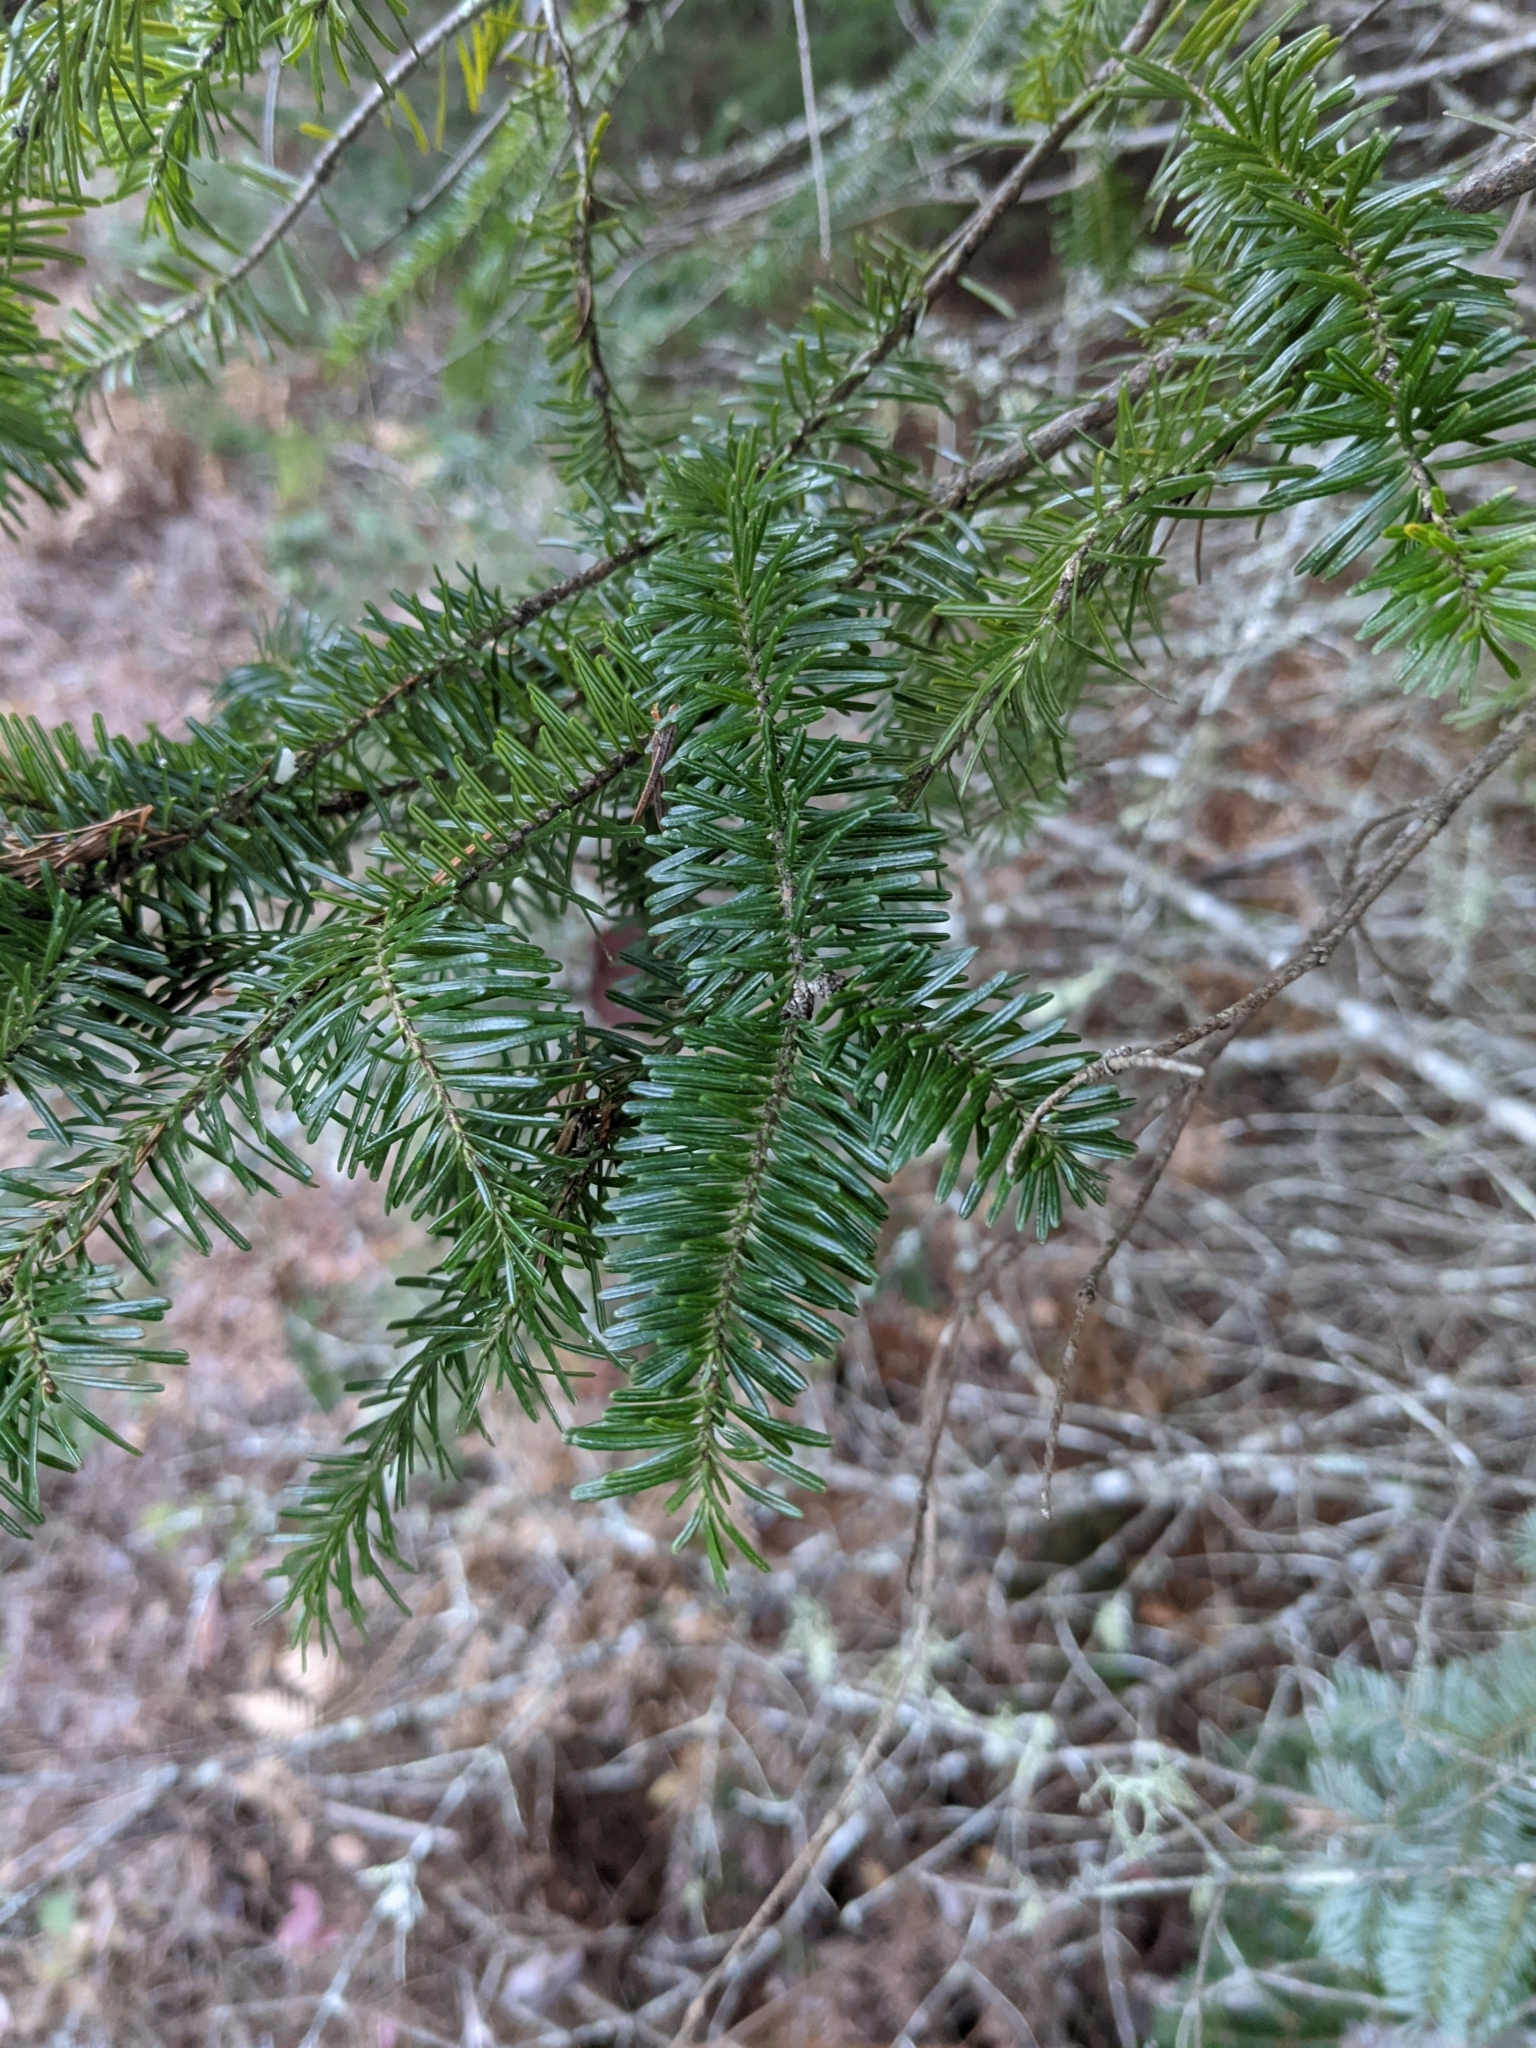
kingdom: Plantae
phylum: Tracheophyta
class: Pinopsida
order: Pinales
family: Pinaceae
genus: Abies
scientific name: Abies balsamea
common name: Balsam fir
